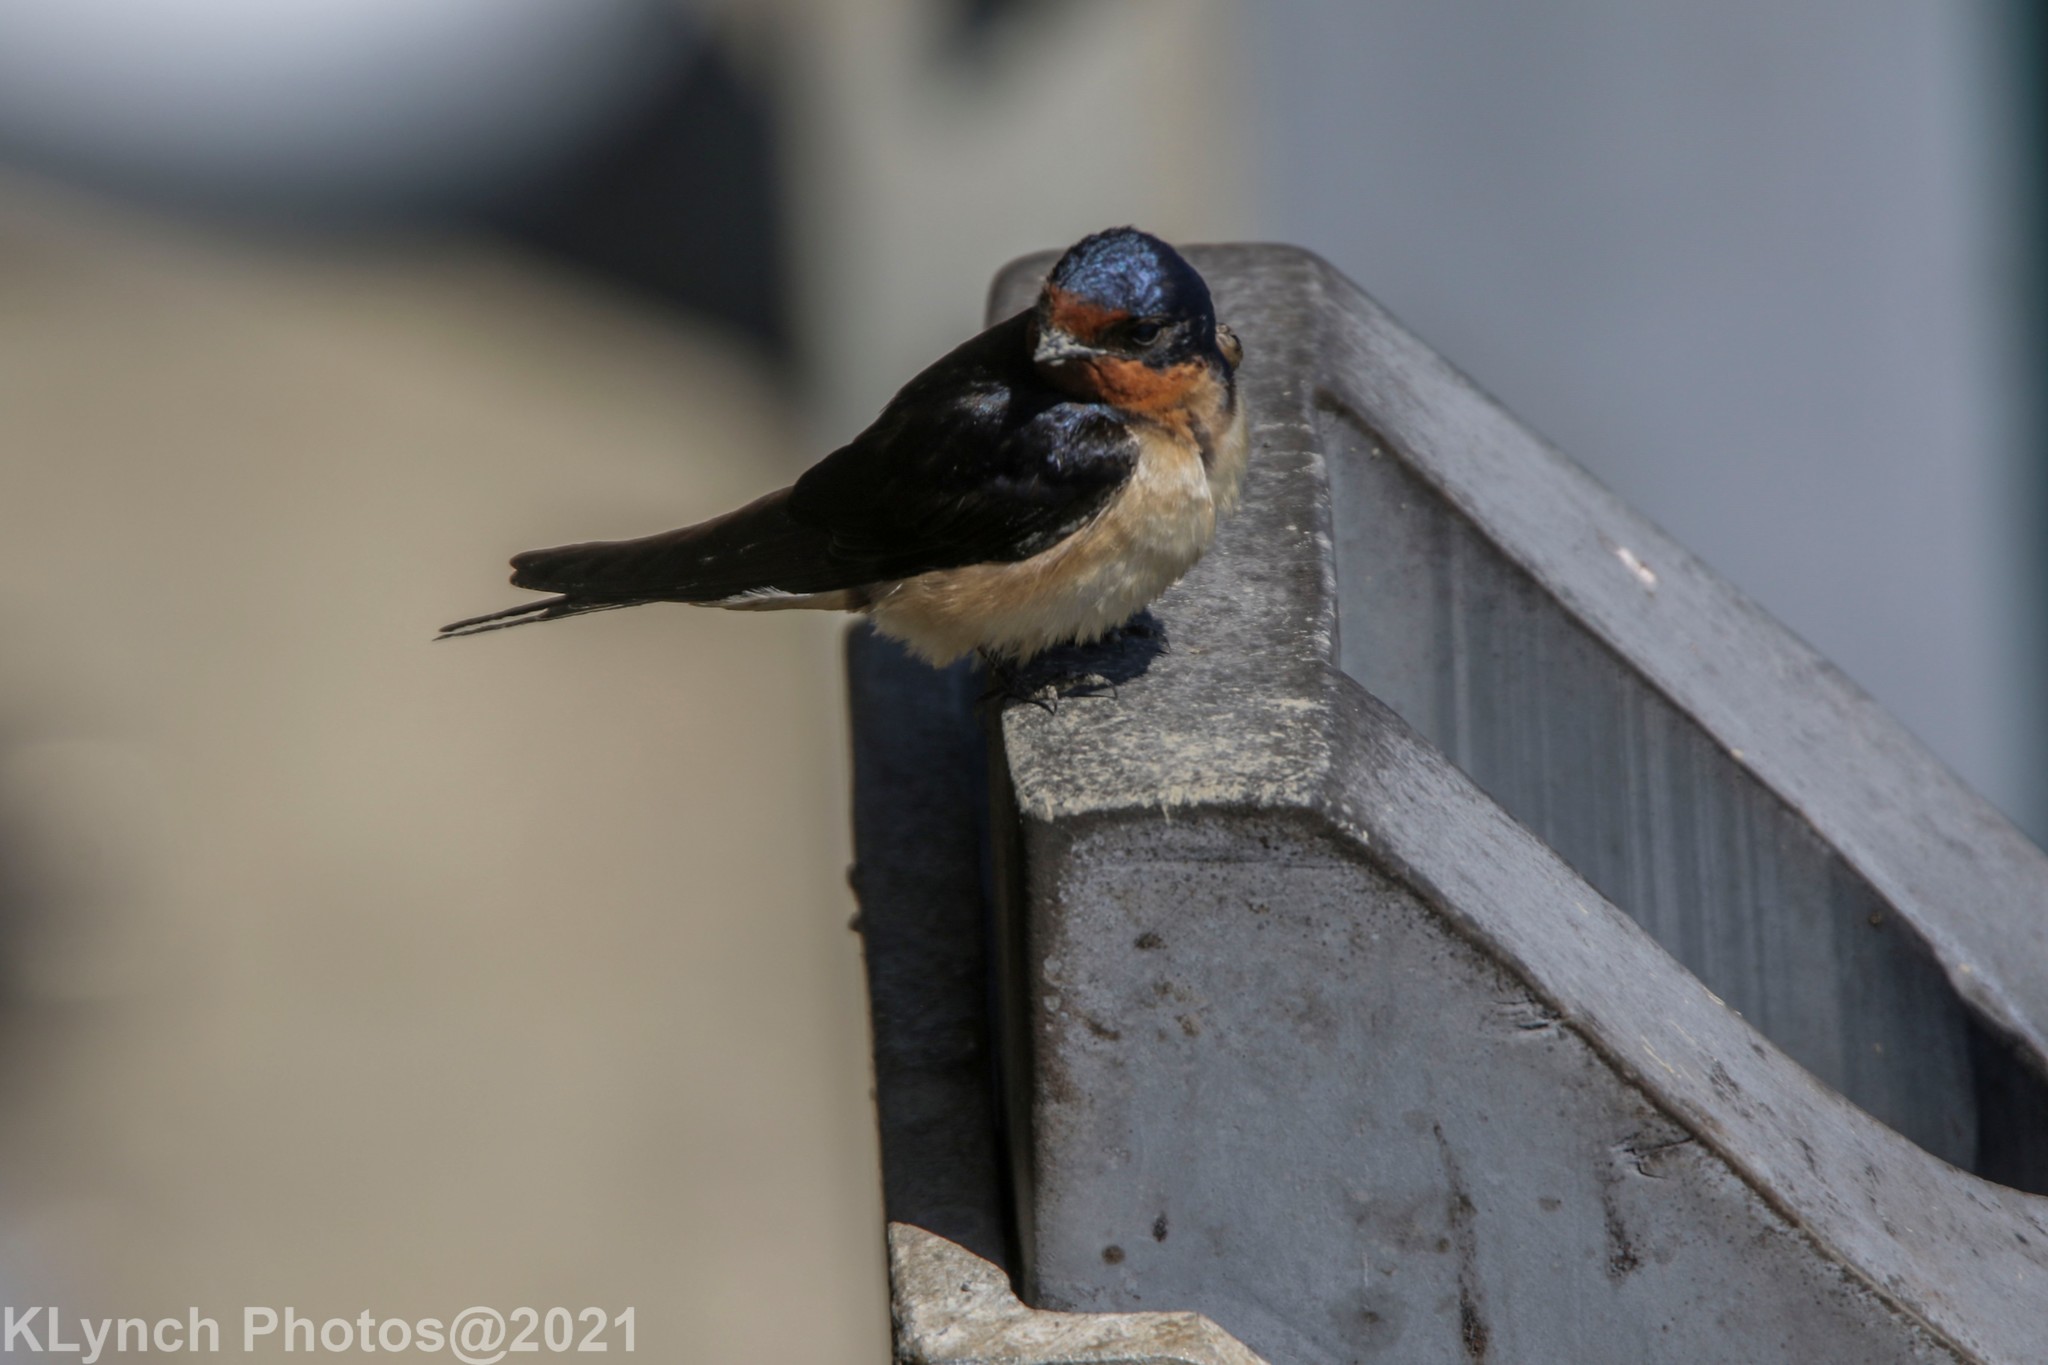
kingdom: Animalia
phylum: Chordata
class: Aves
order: Passeriformes
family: Hirundinidae
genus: Hirundo
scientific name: Hirundo rustica
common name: Barn swallow
